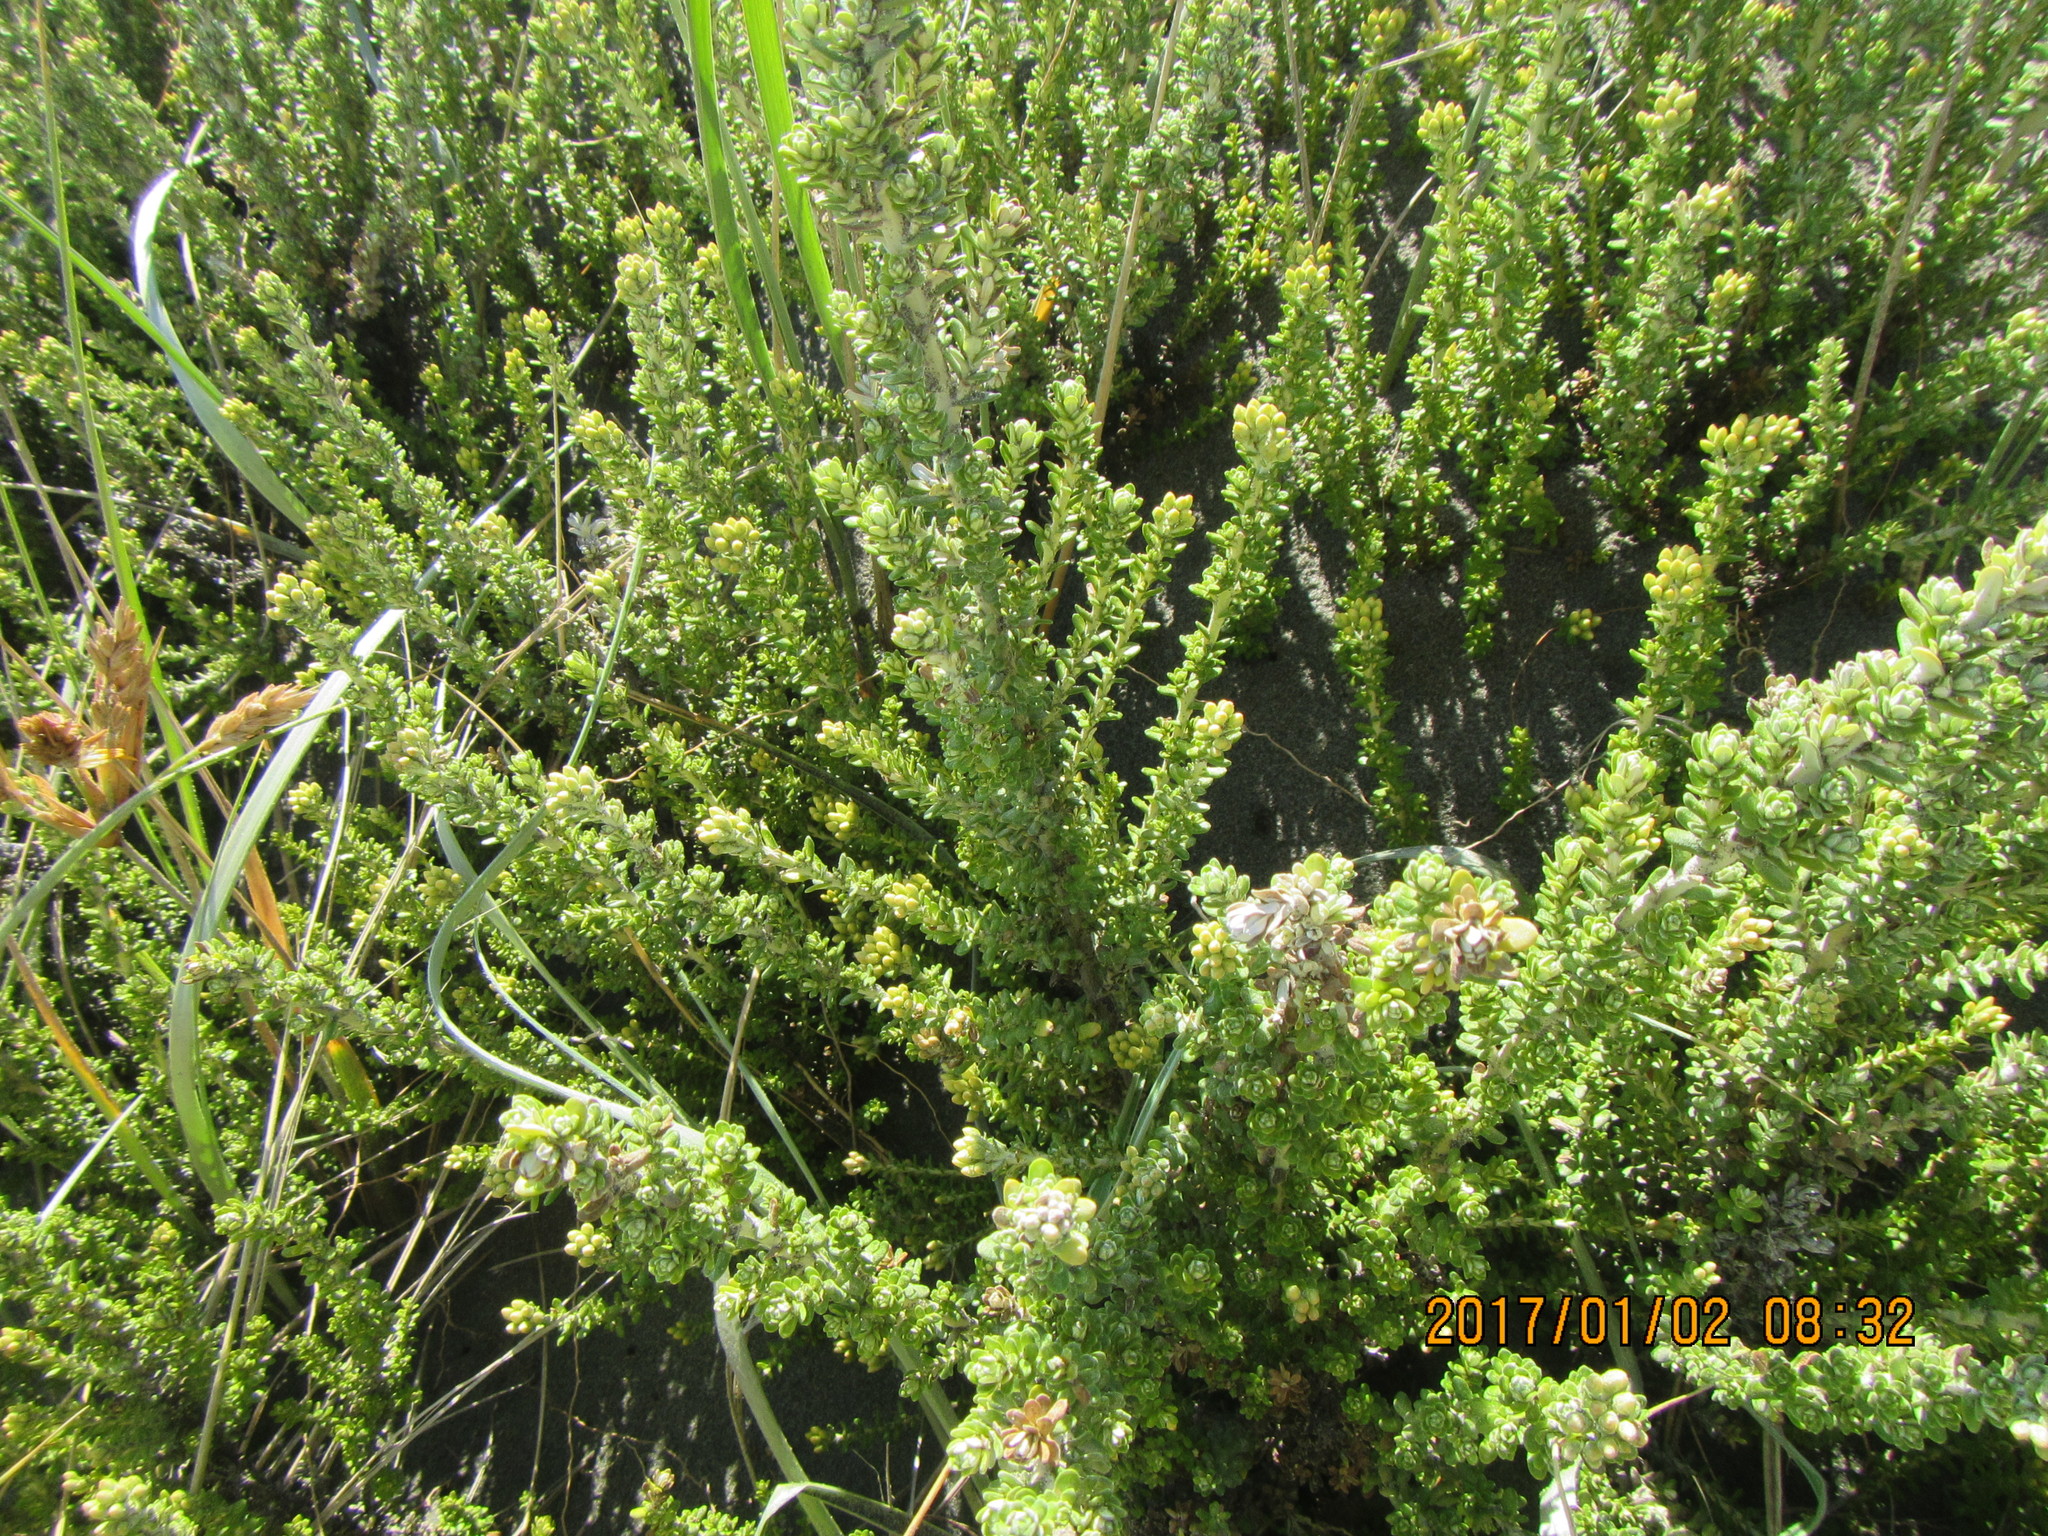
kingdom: Plantae
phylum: Tracheophyta
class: Magnoliopsida
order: Asterales
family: Asteraceae
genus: Ozothamnus
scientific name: Ozothamnus leptophyllus
